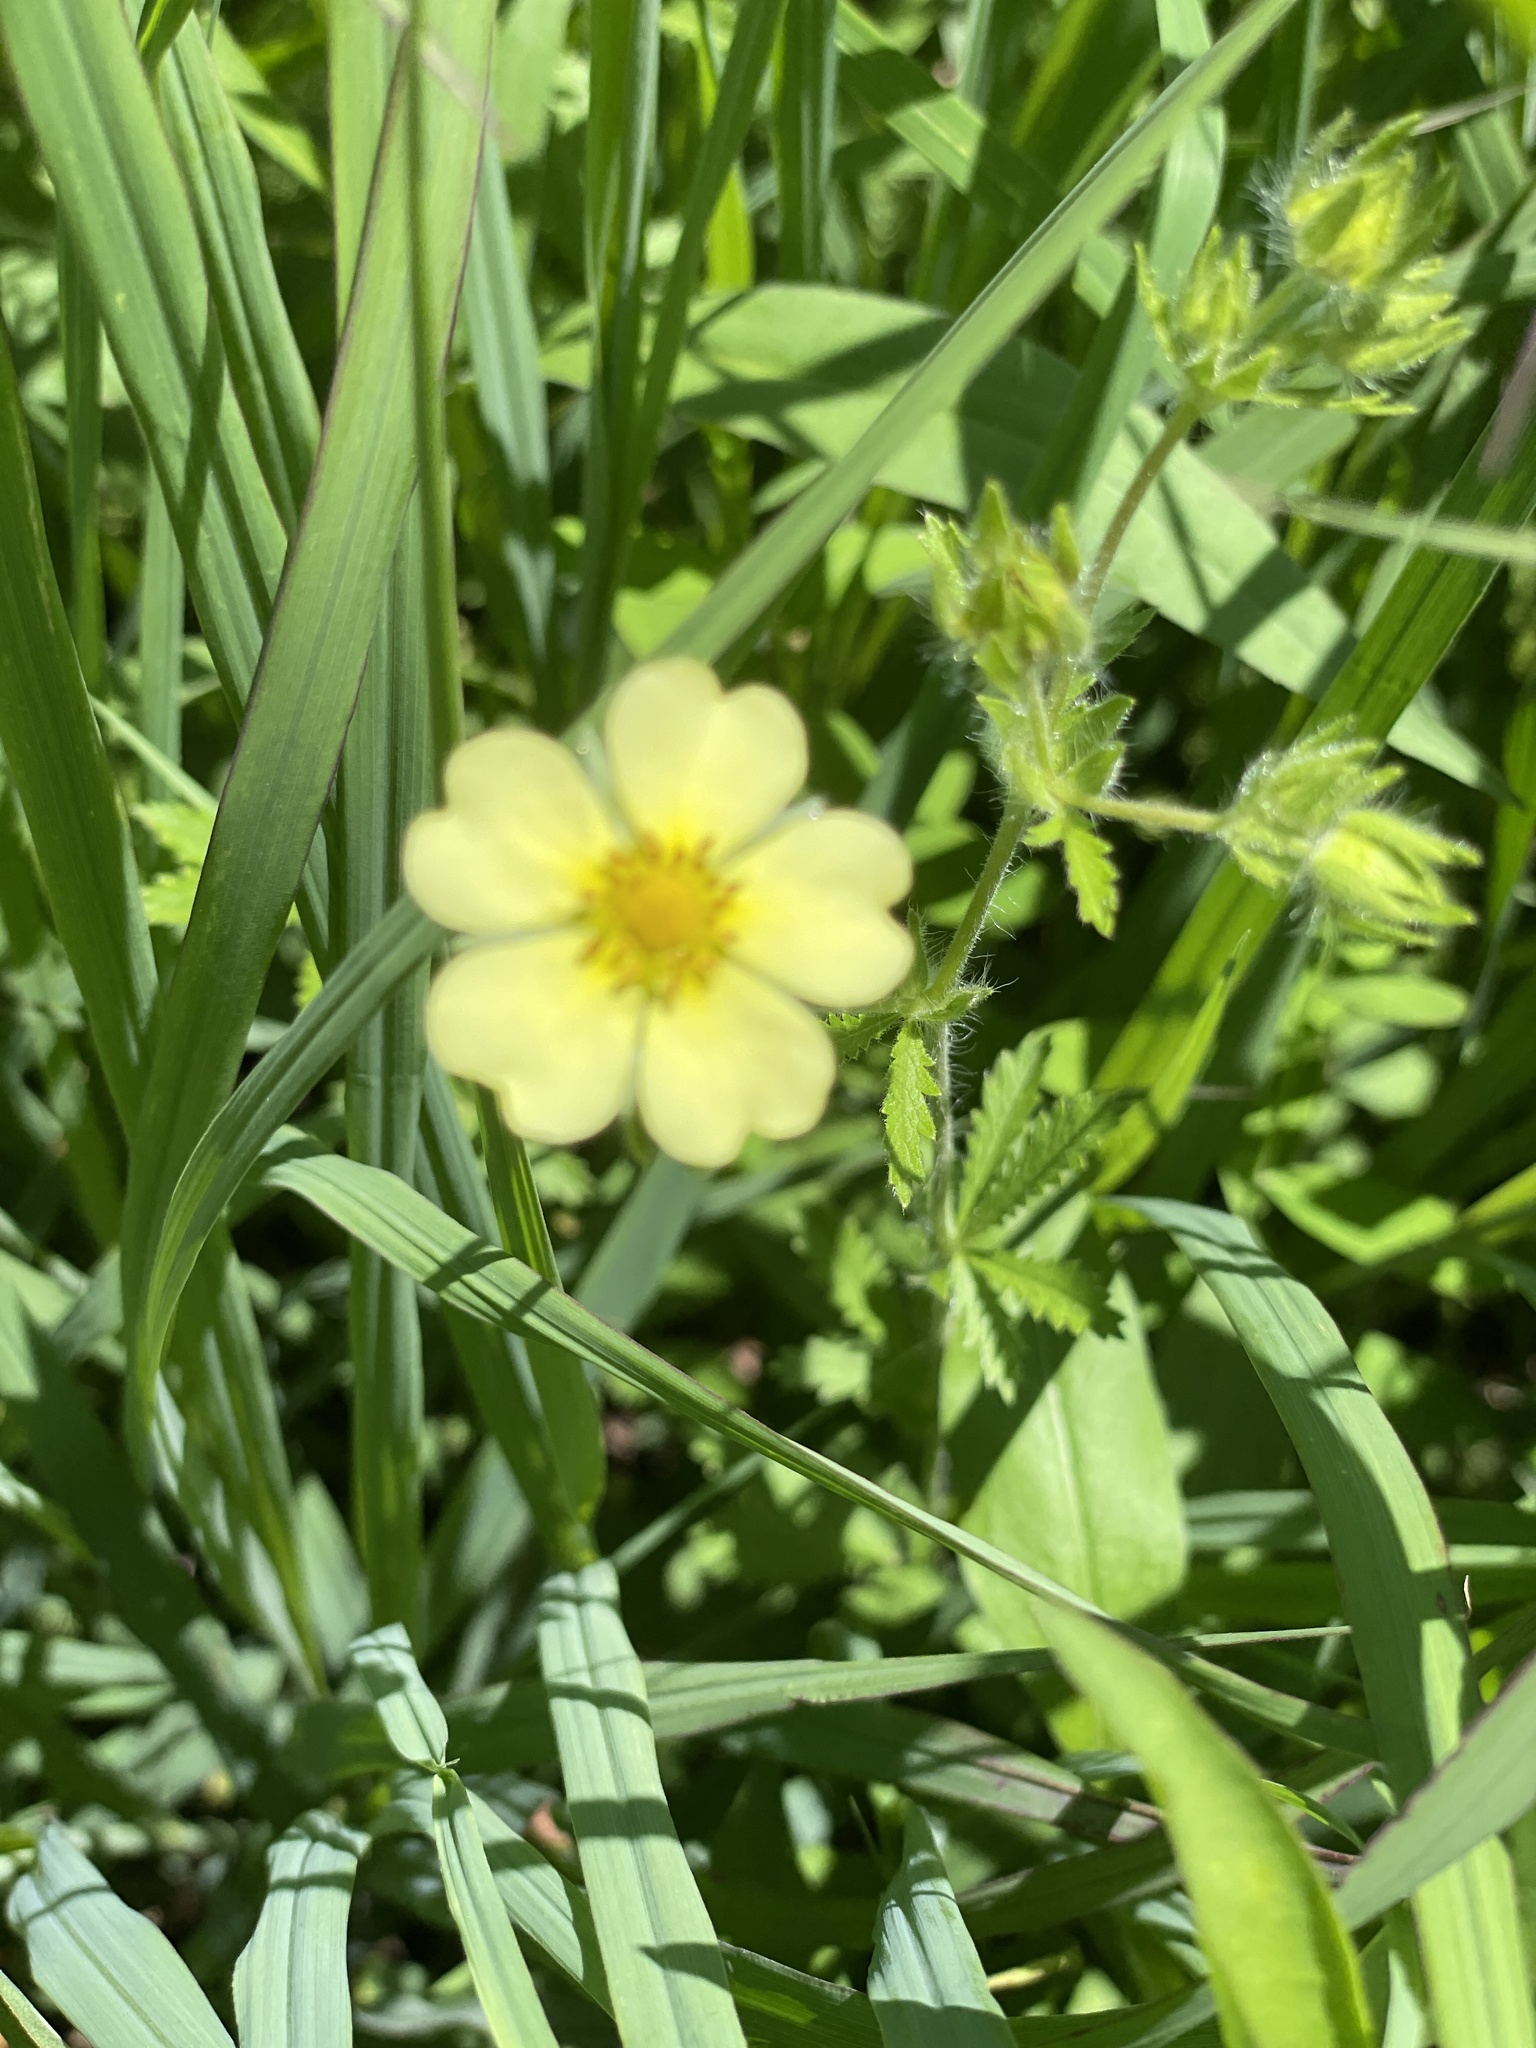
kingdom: Plantae
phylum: Tracheophyta
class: Magnoliopsida
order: Rosales
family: Rosaceae
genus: Potentilla
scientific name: Potentilla recta
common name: Sulphur cinquefoil
